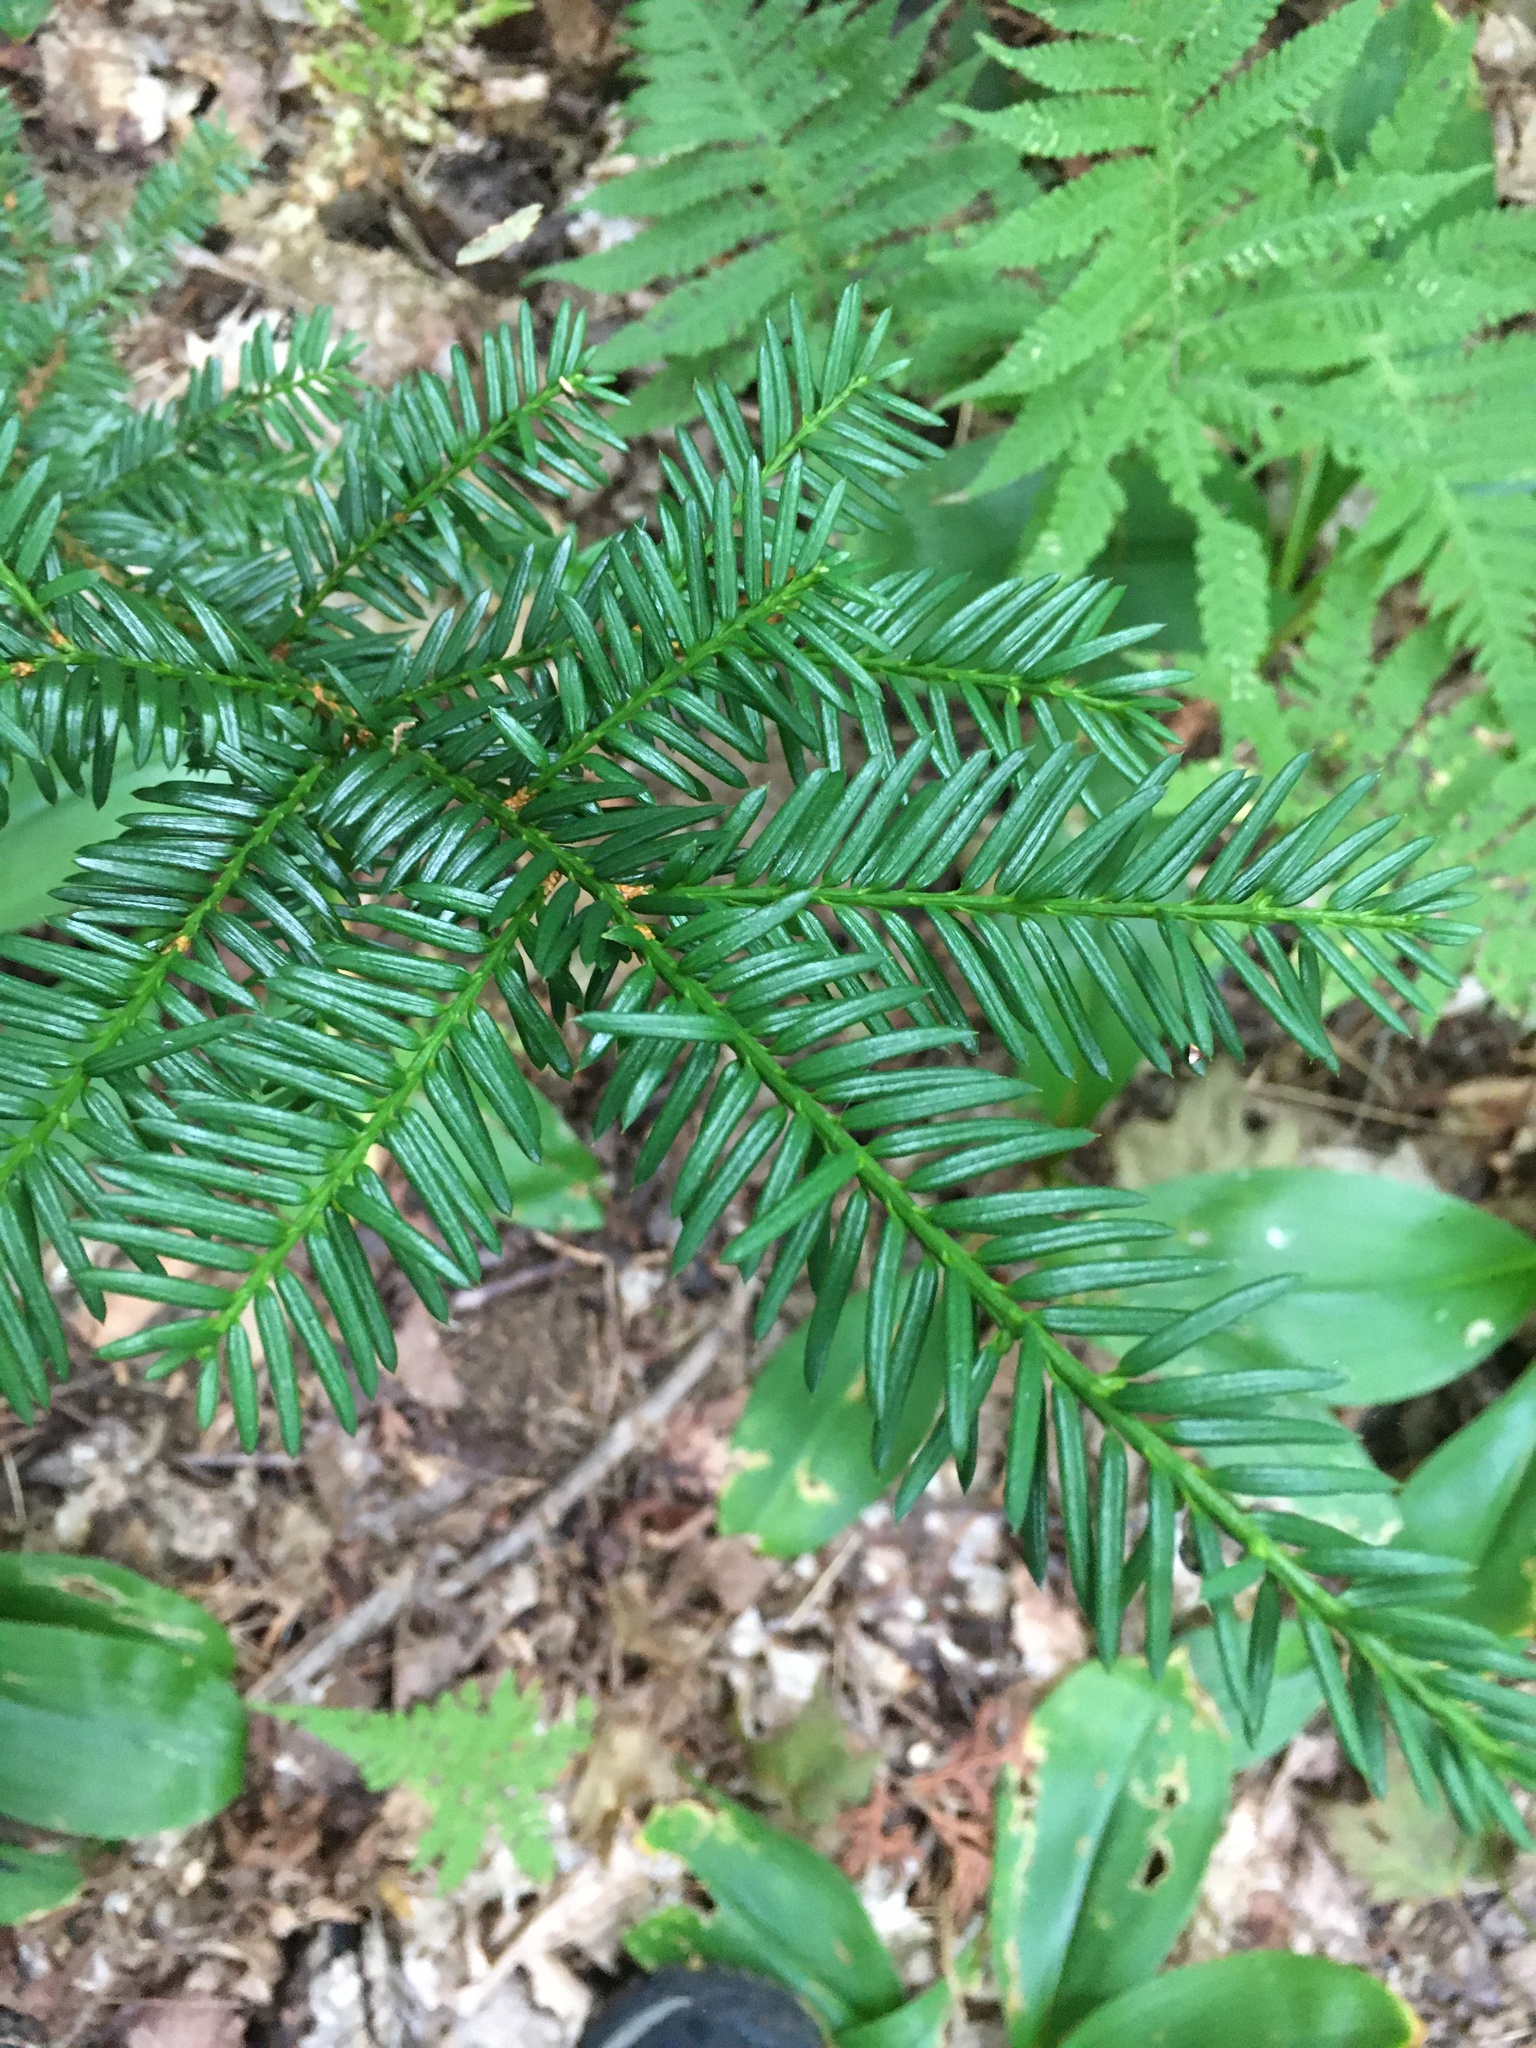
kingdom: Plantae
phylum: Tracheophyta
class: Pinopsida
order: Pinales
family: Taxaceae
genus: Taxus
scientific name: Taxus canadensis
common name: American yew
